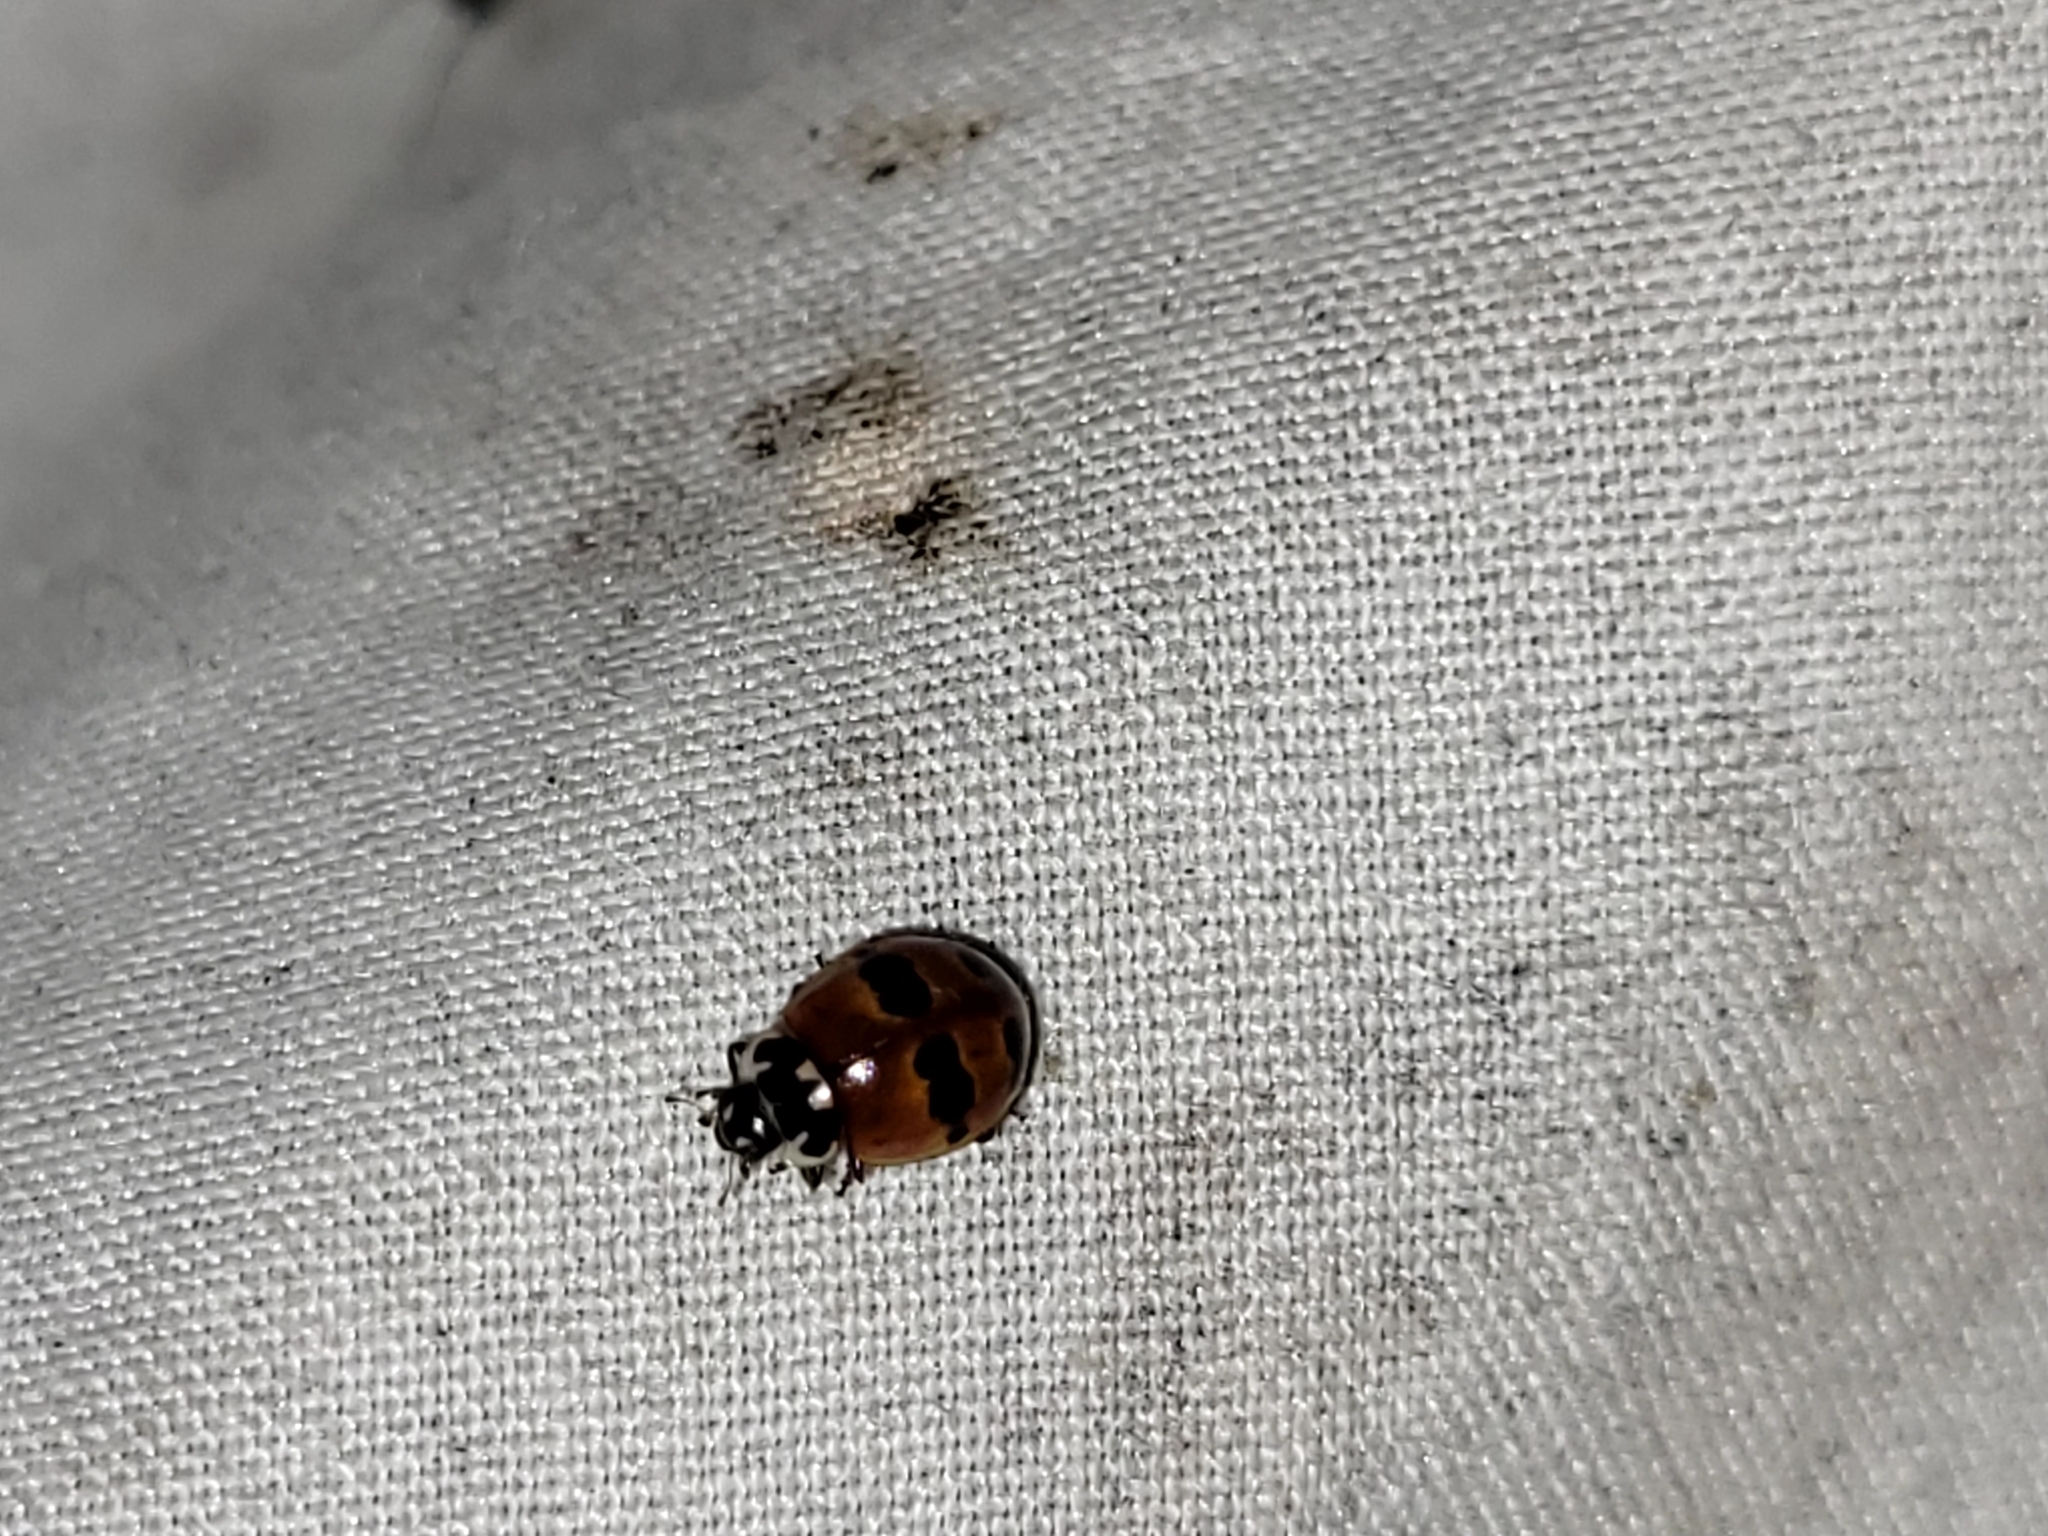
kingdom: Animalia
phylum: Arthropoda
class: Insecta
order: Coleoptera
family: Coccinellidae
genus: Adalia
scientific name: Adalia bipunctata
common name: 2-spot ladybird
